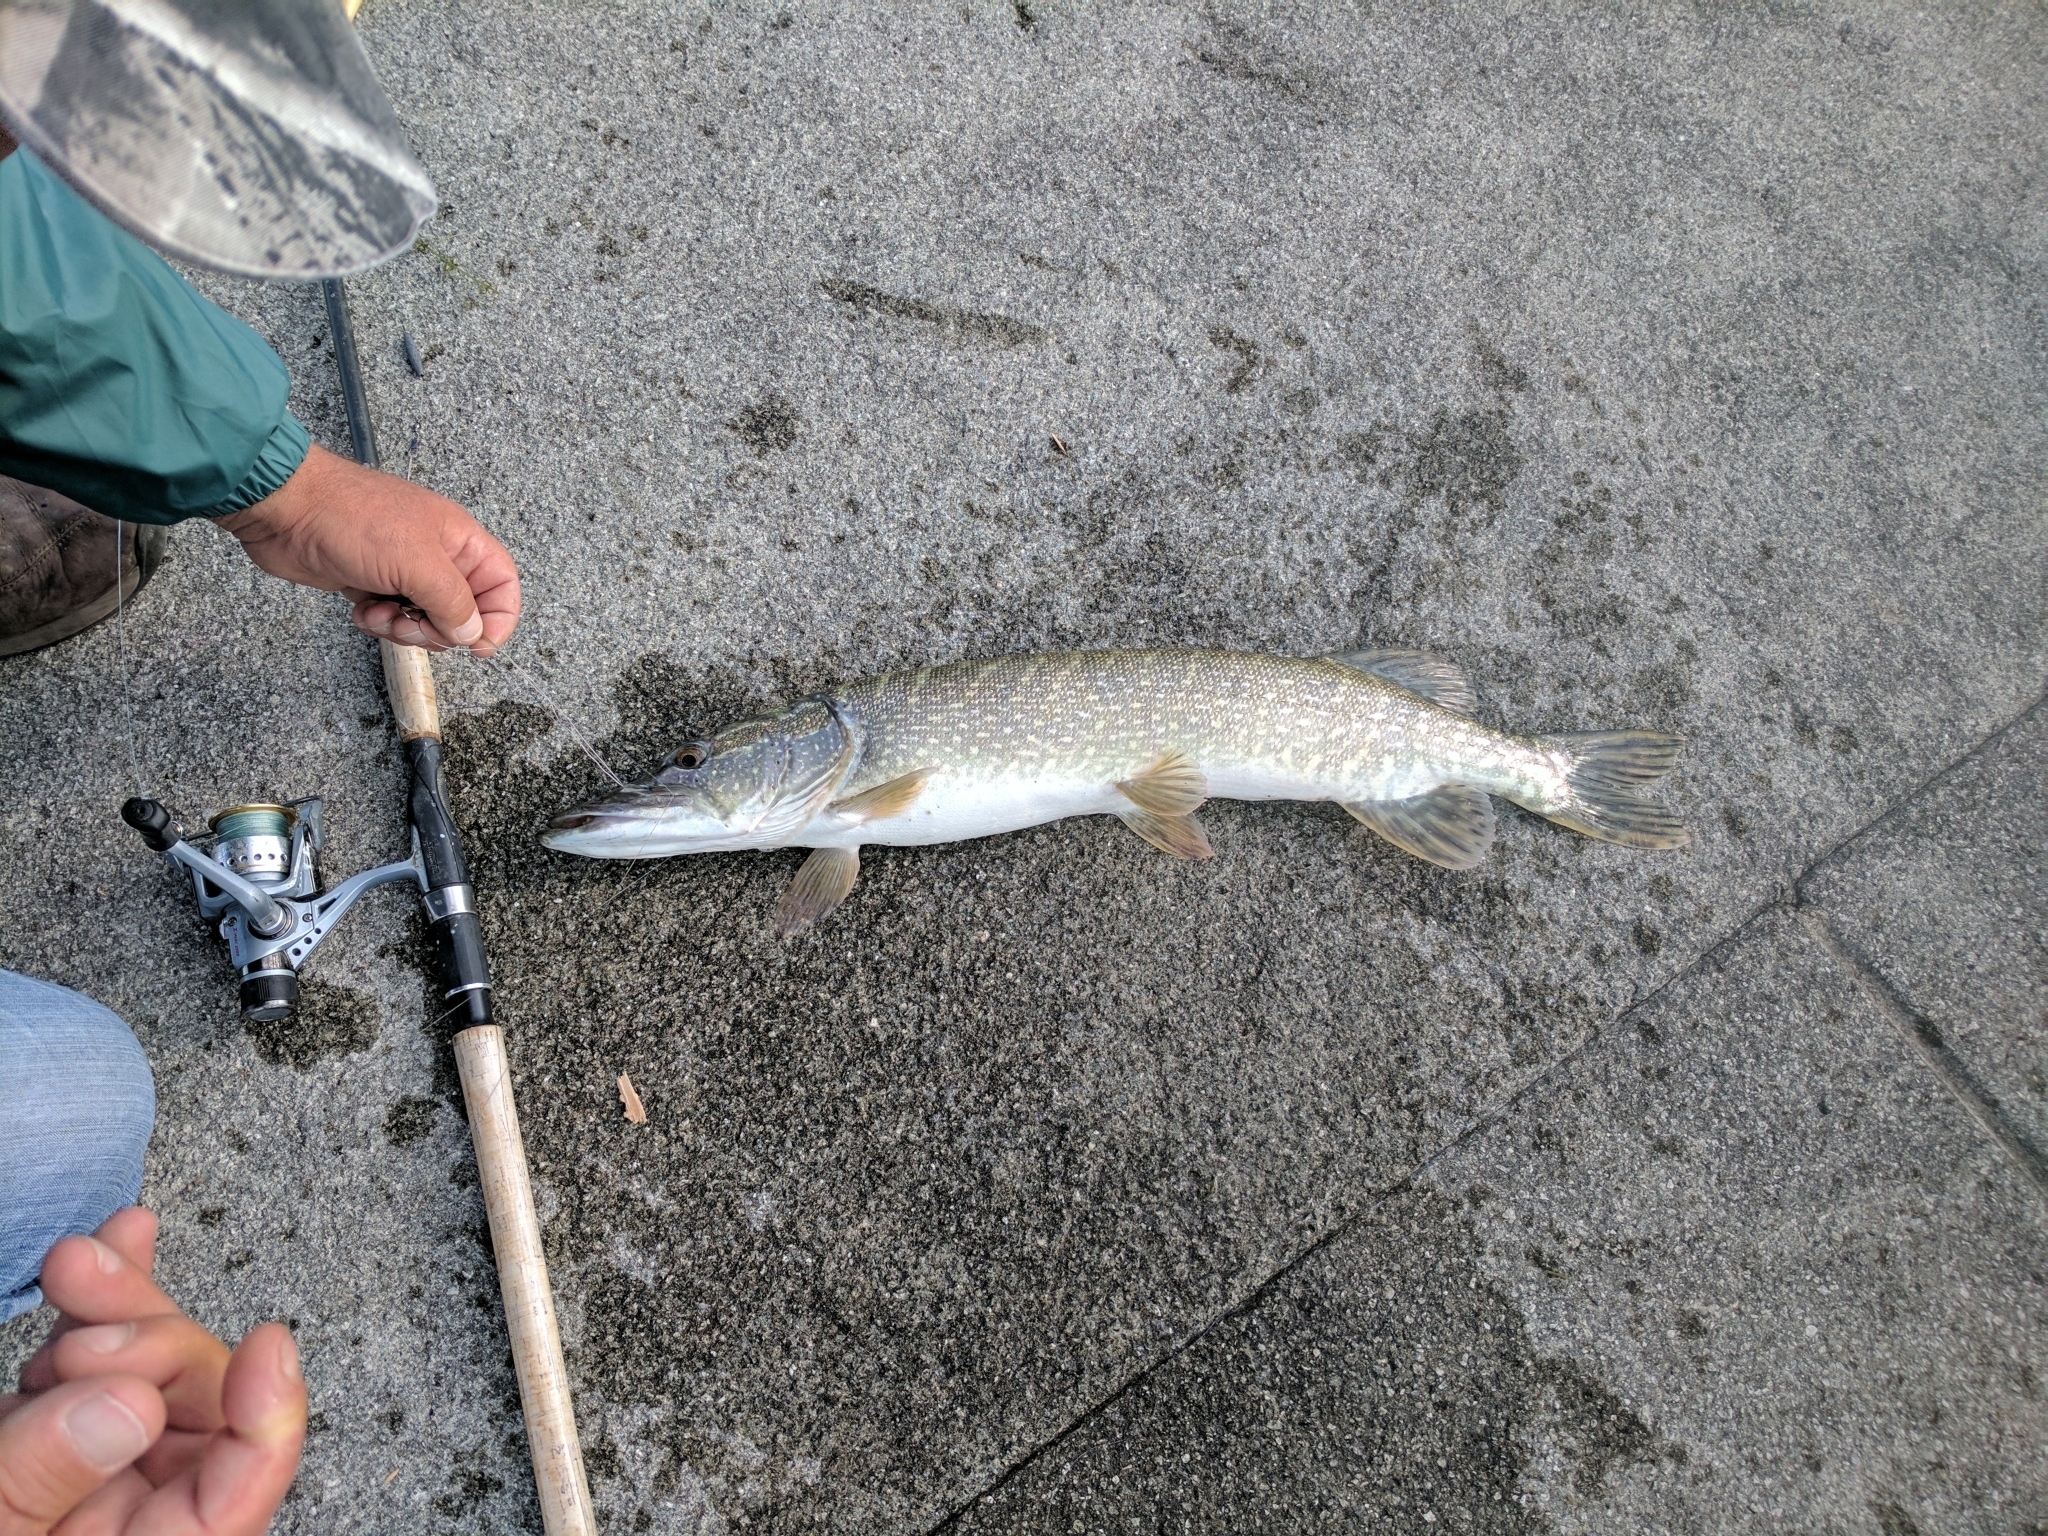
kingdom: Animalia
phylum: Chordata
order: Esociformes
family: Esocidae
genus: Esox
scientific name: Esox lucius
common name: Northern pike
